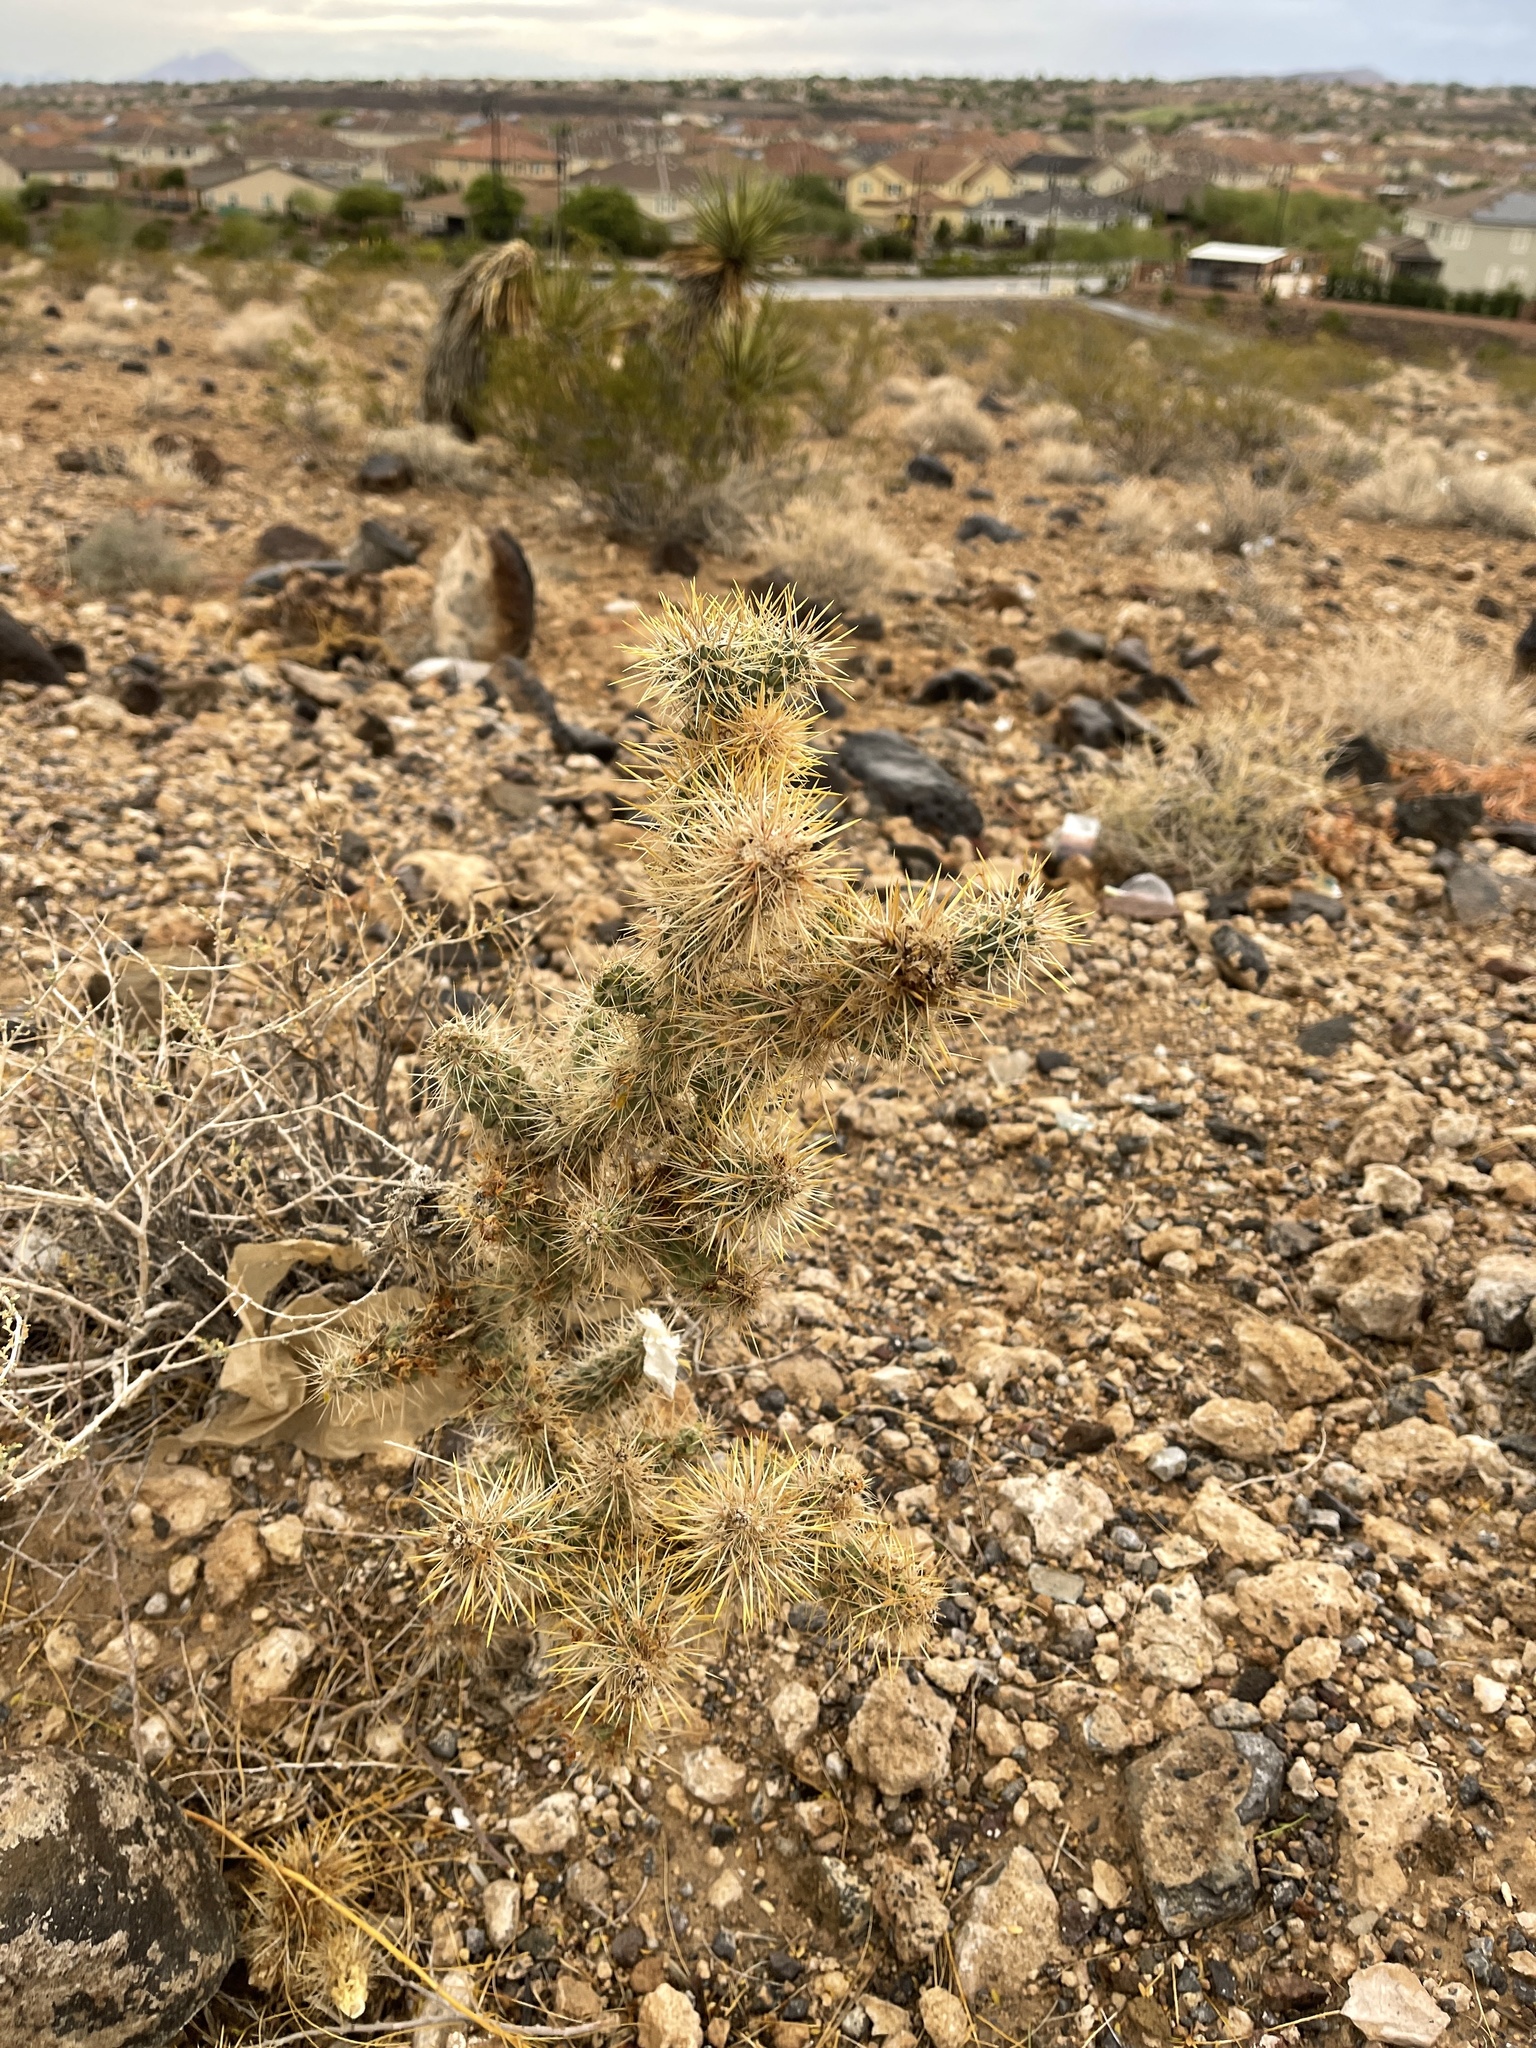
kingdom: Plantae
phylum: Tracheophyta
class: Magnoliopsida
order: Caryophyllales
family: Cactaceae
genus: Cylindropuntia
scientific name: Cylindropuntia echinocarpa
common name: Ground cholla
